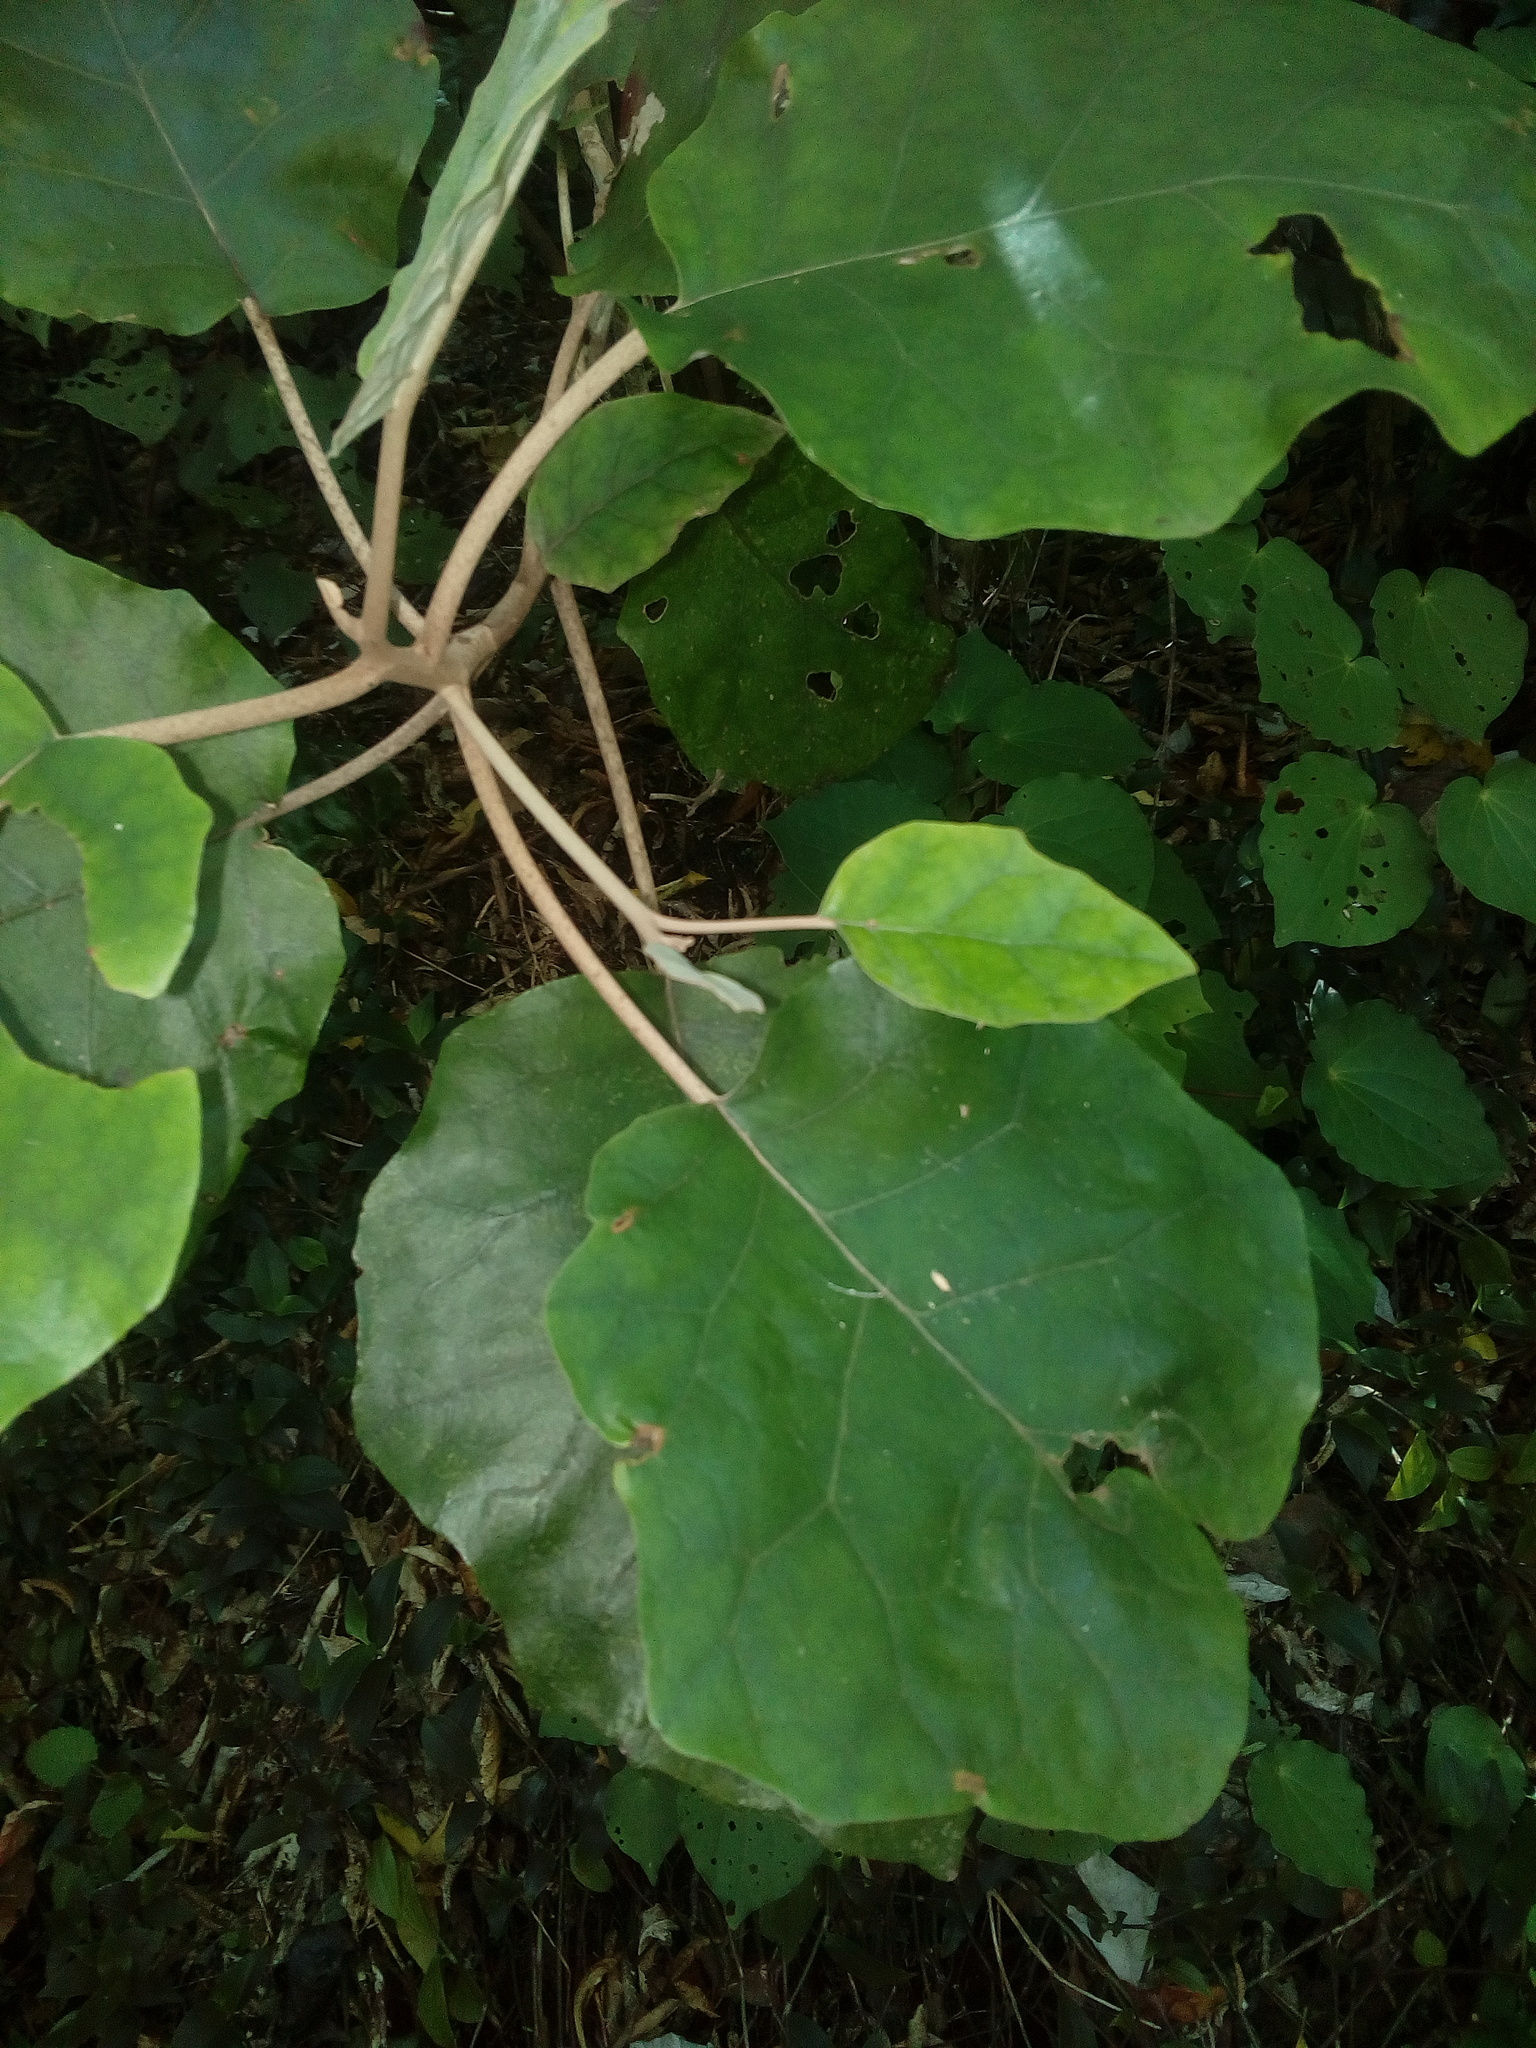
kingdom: Plantae
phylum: Tracheophyta
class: Magnoliopsida
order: Asterales
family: Asteraceae
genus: Brachyglottis
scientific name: Brachyglottis repanda
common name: Hedge ragwort
